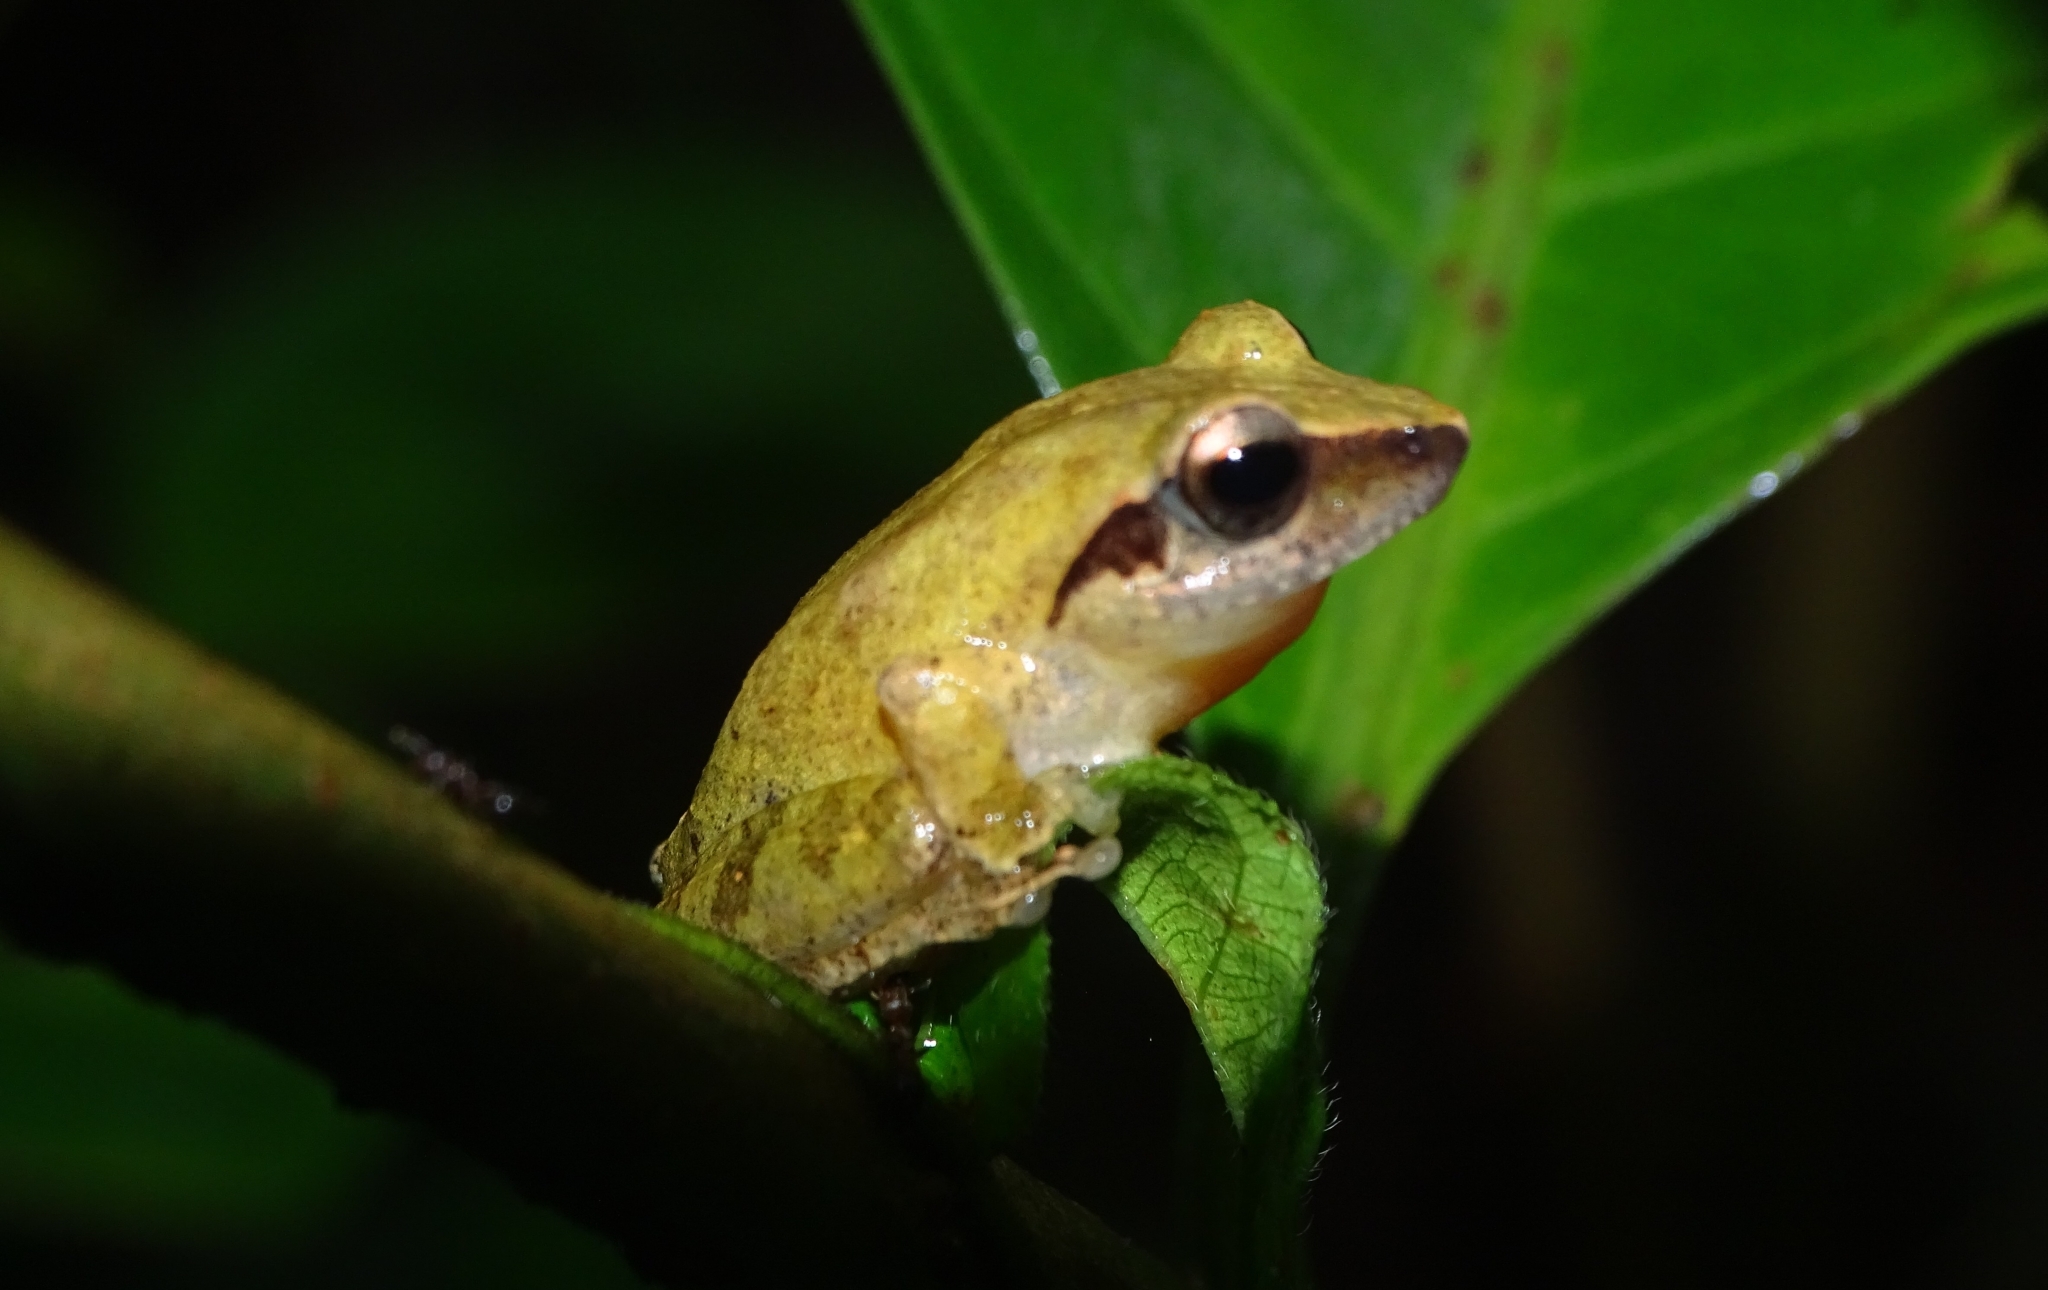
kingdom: Animalia
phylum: Chordata
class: Amphibia
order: Anura
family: Rhacophoridae
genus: Pseudophilautus
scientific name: Pseudophilautus wynaadensis
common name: Dark-eared bush frog
